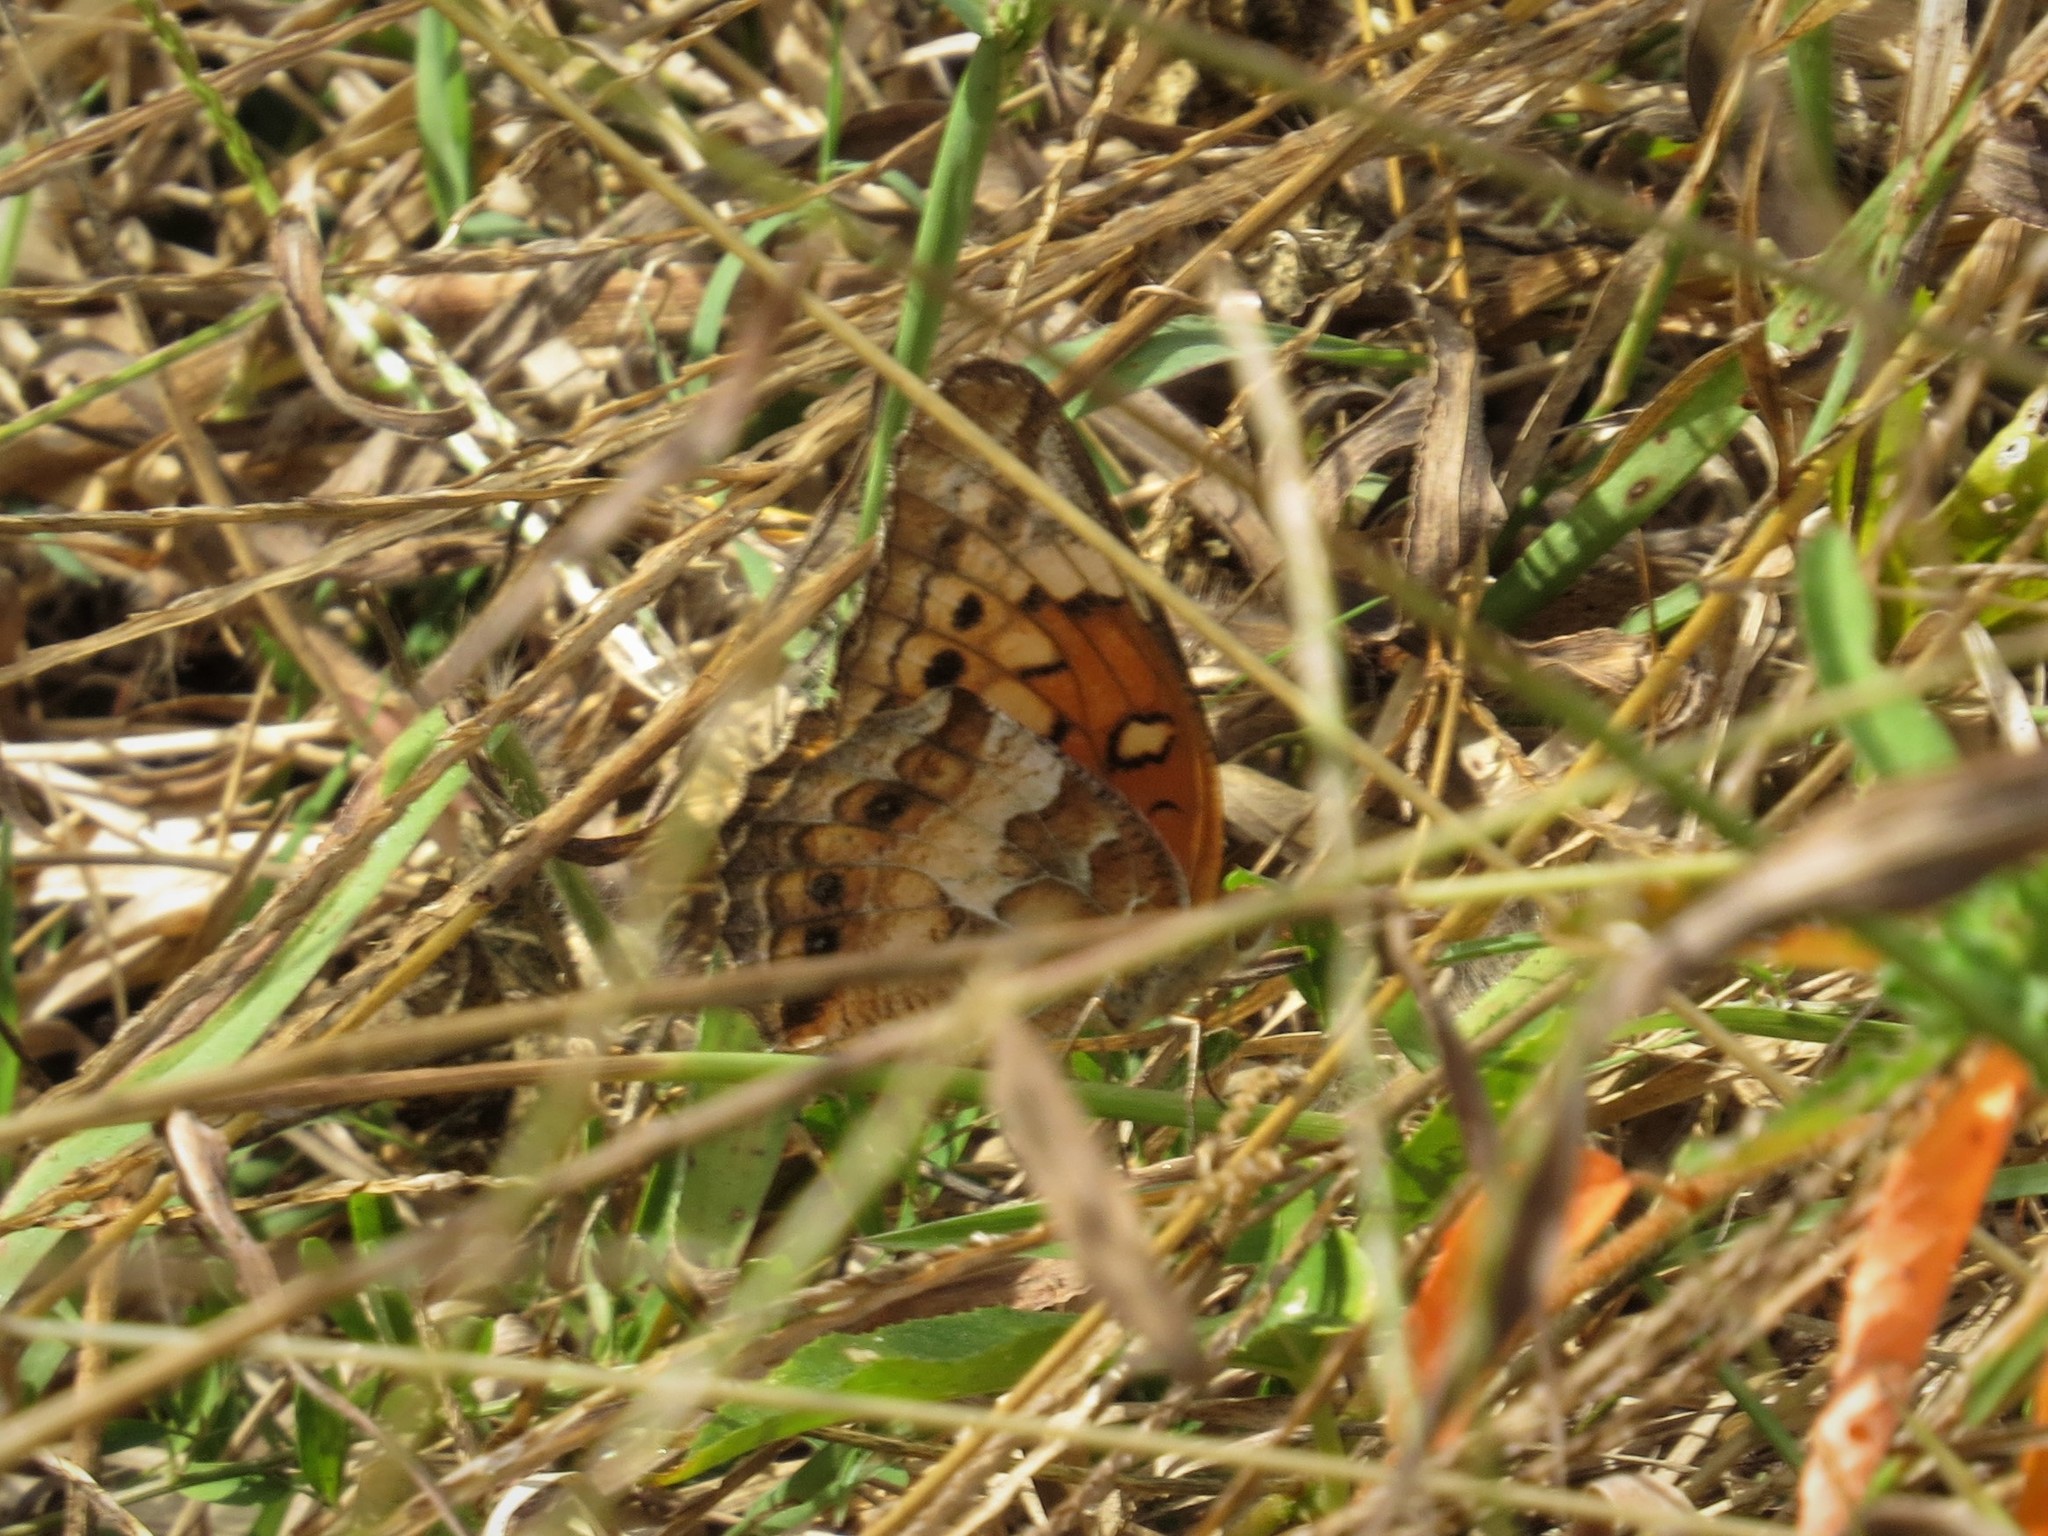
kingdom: Animalia
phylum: Arthropoda
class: Insecta
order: Lepidoptera
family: Nymphalidae
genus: Euptoieta
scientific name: Euptoieta claudia
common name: Variegated fritillary
